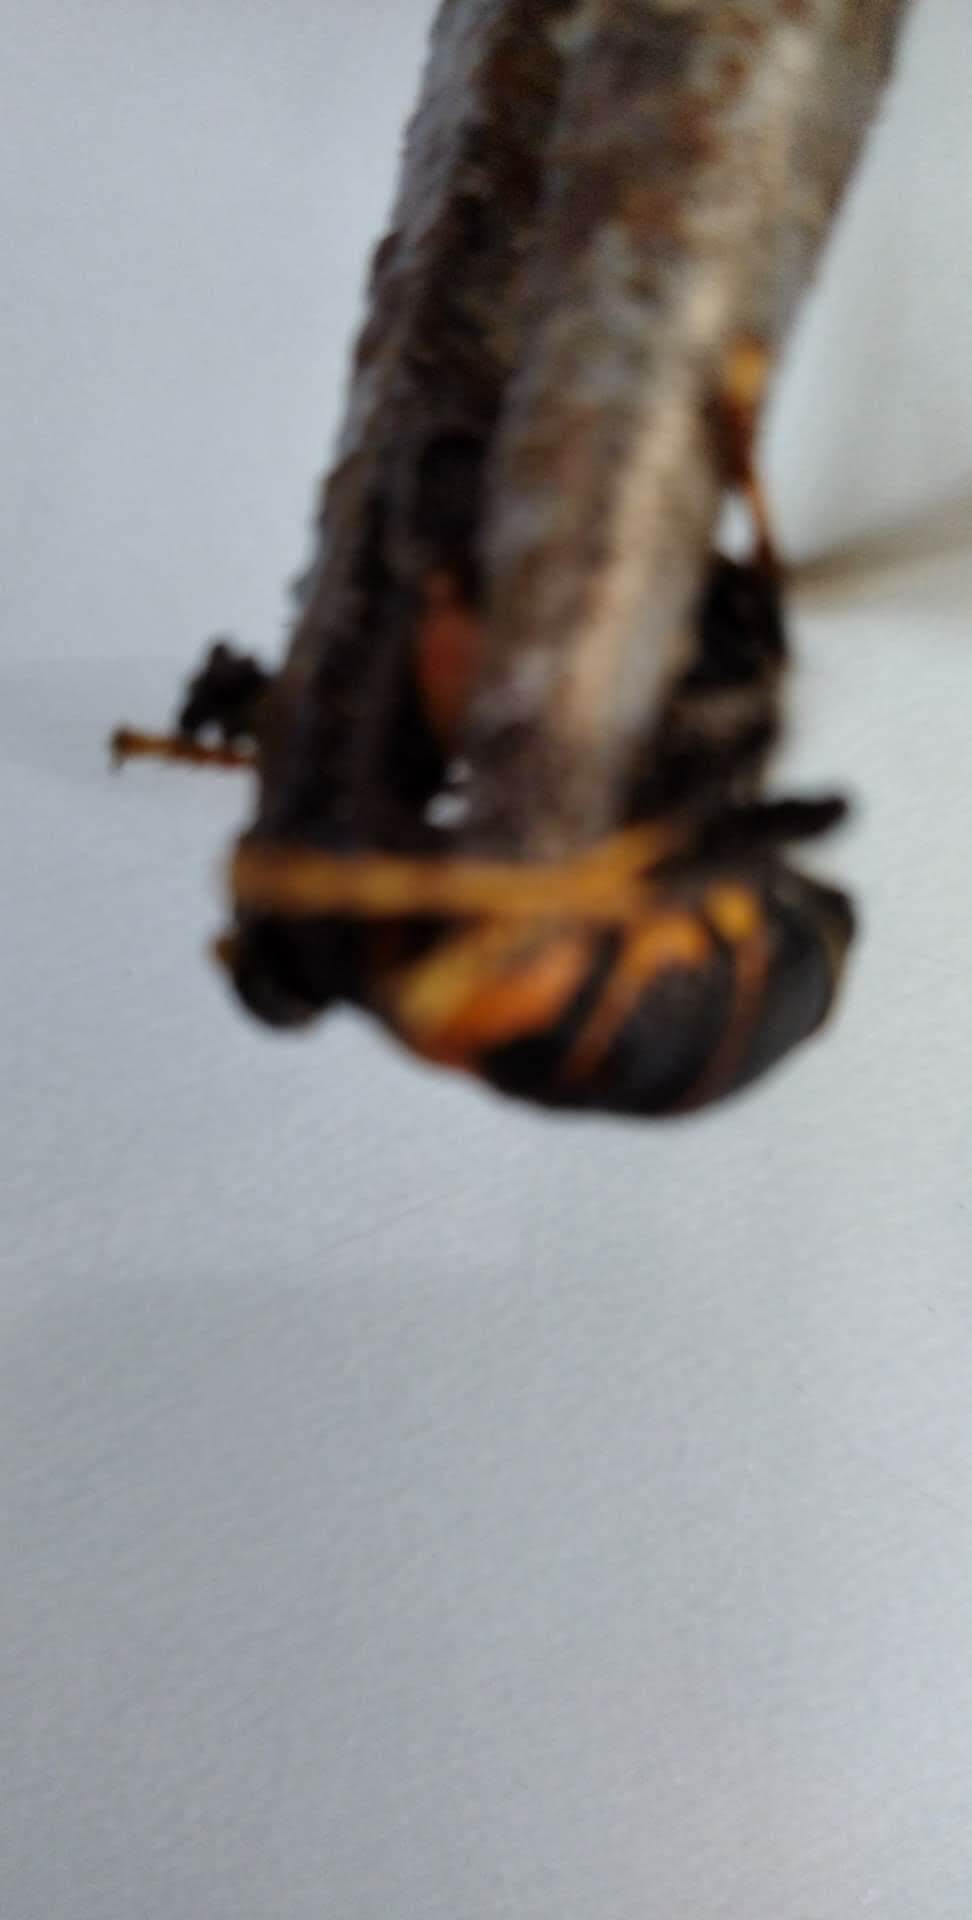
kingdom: Animalia
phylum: Arthropoda
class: Insecta
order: Hymenoptera
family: Vespidae
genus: Vespa
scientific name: Vespa velutina
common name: Asian hornet
